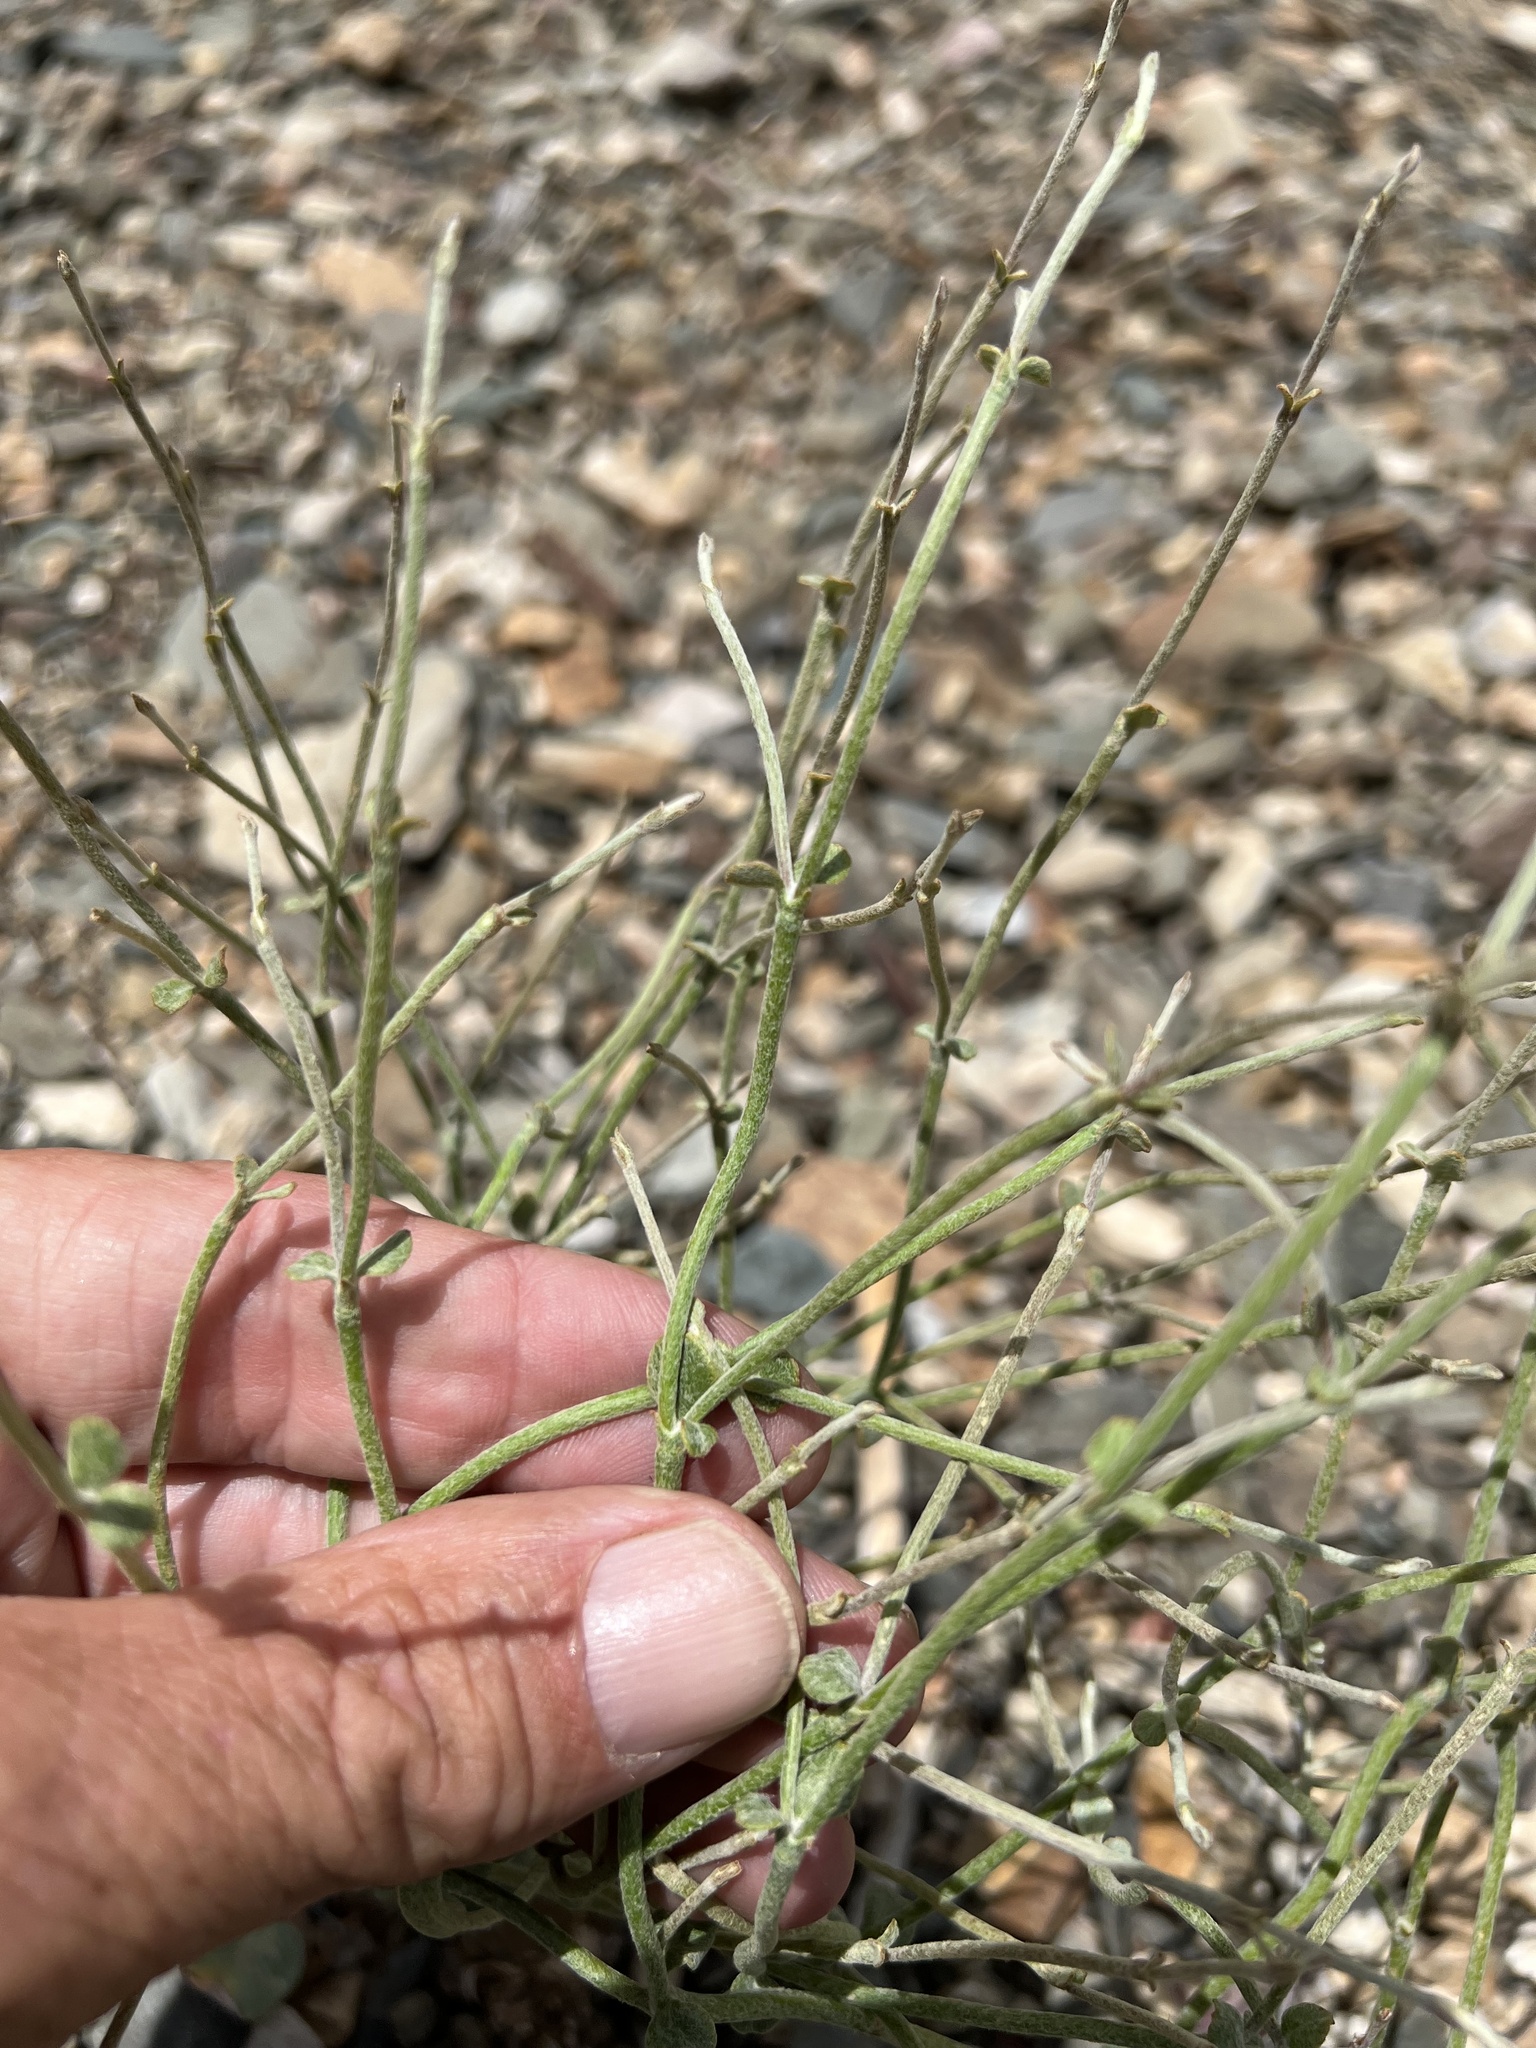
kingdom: Plantae
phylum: Tracheophyta
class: Magnoliopsida
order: Caryophyllales
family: Polygonaceae
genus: Eriogonum
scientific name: Eriogonum panamintense
